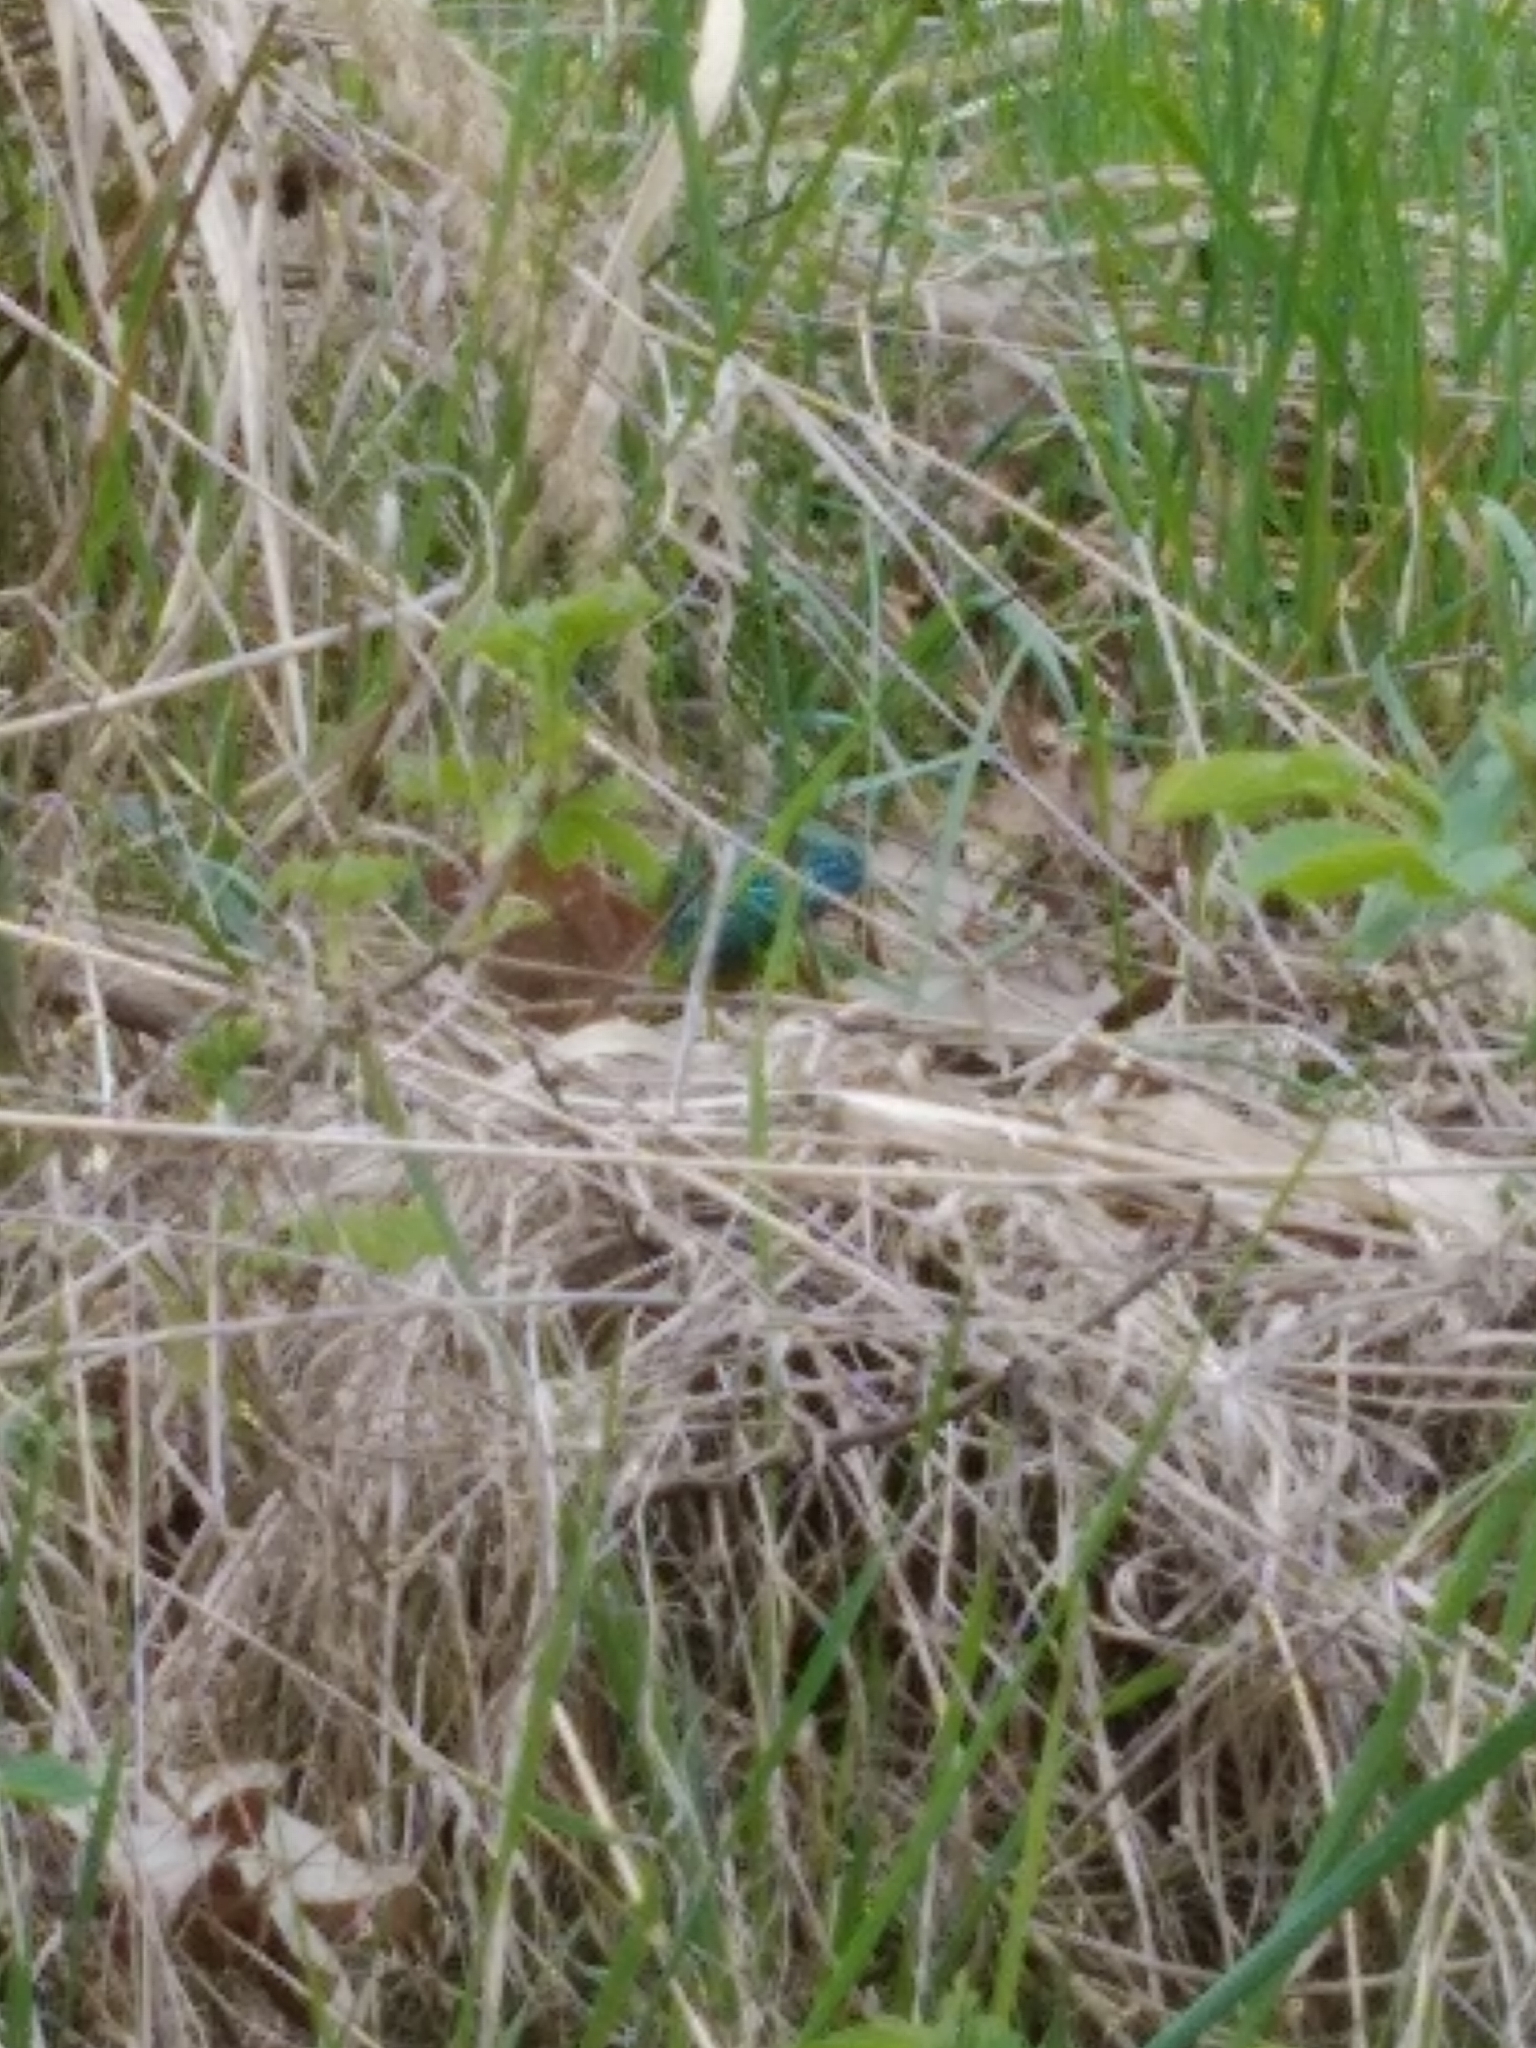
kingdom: Animalia
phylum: Chordata
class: Squamata
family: Lacertidae
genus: Lacerta
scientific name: Lacerta viridis
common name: European green lizard
